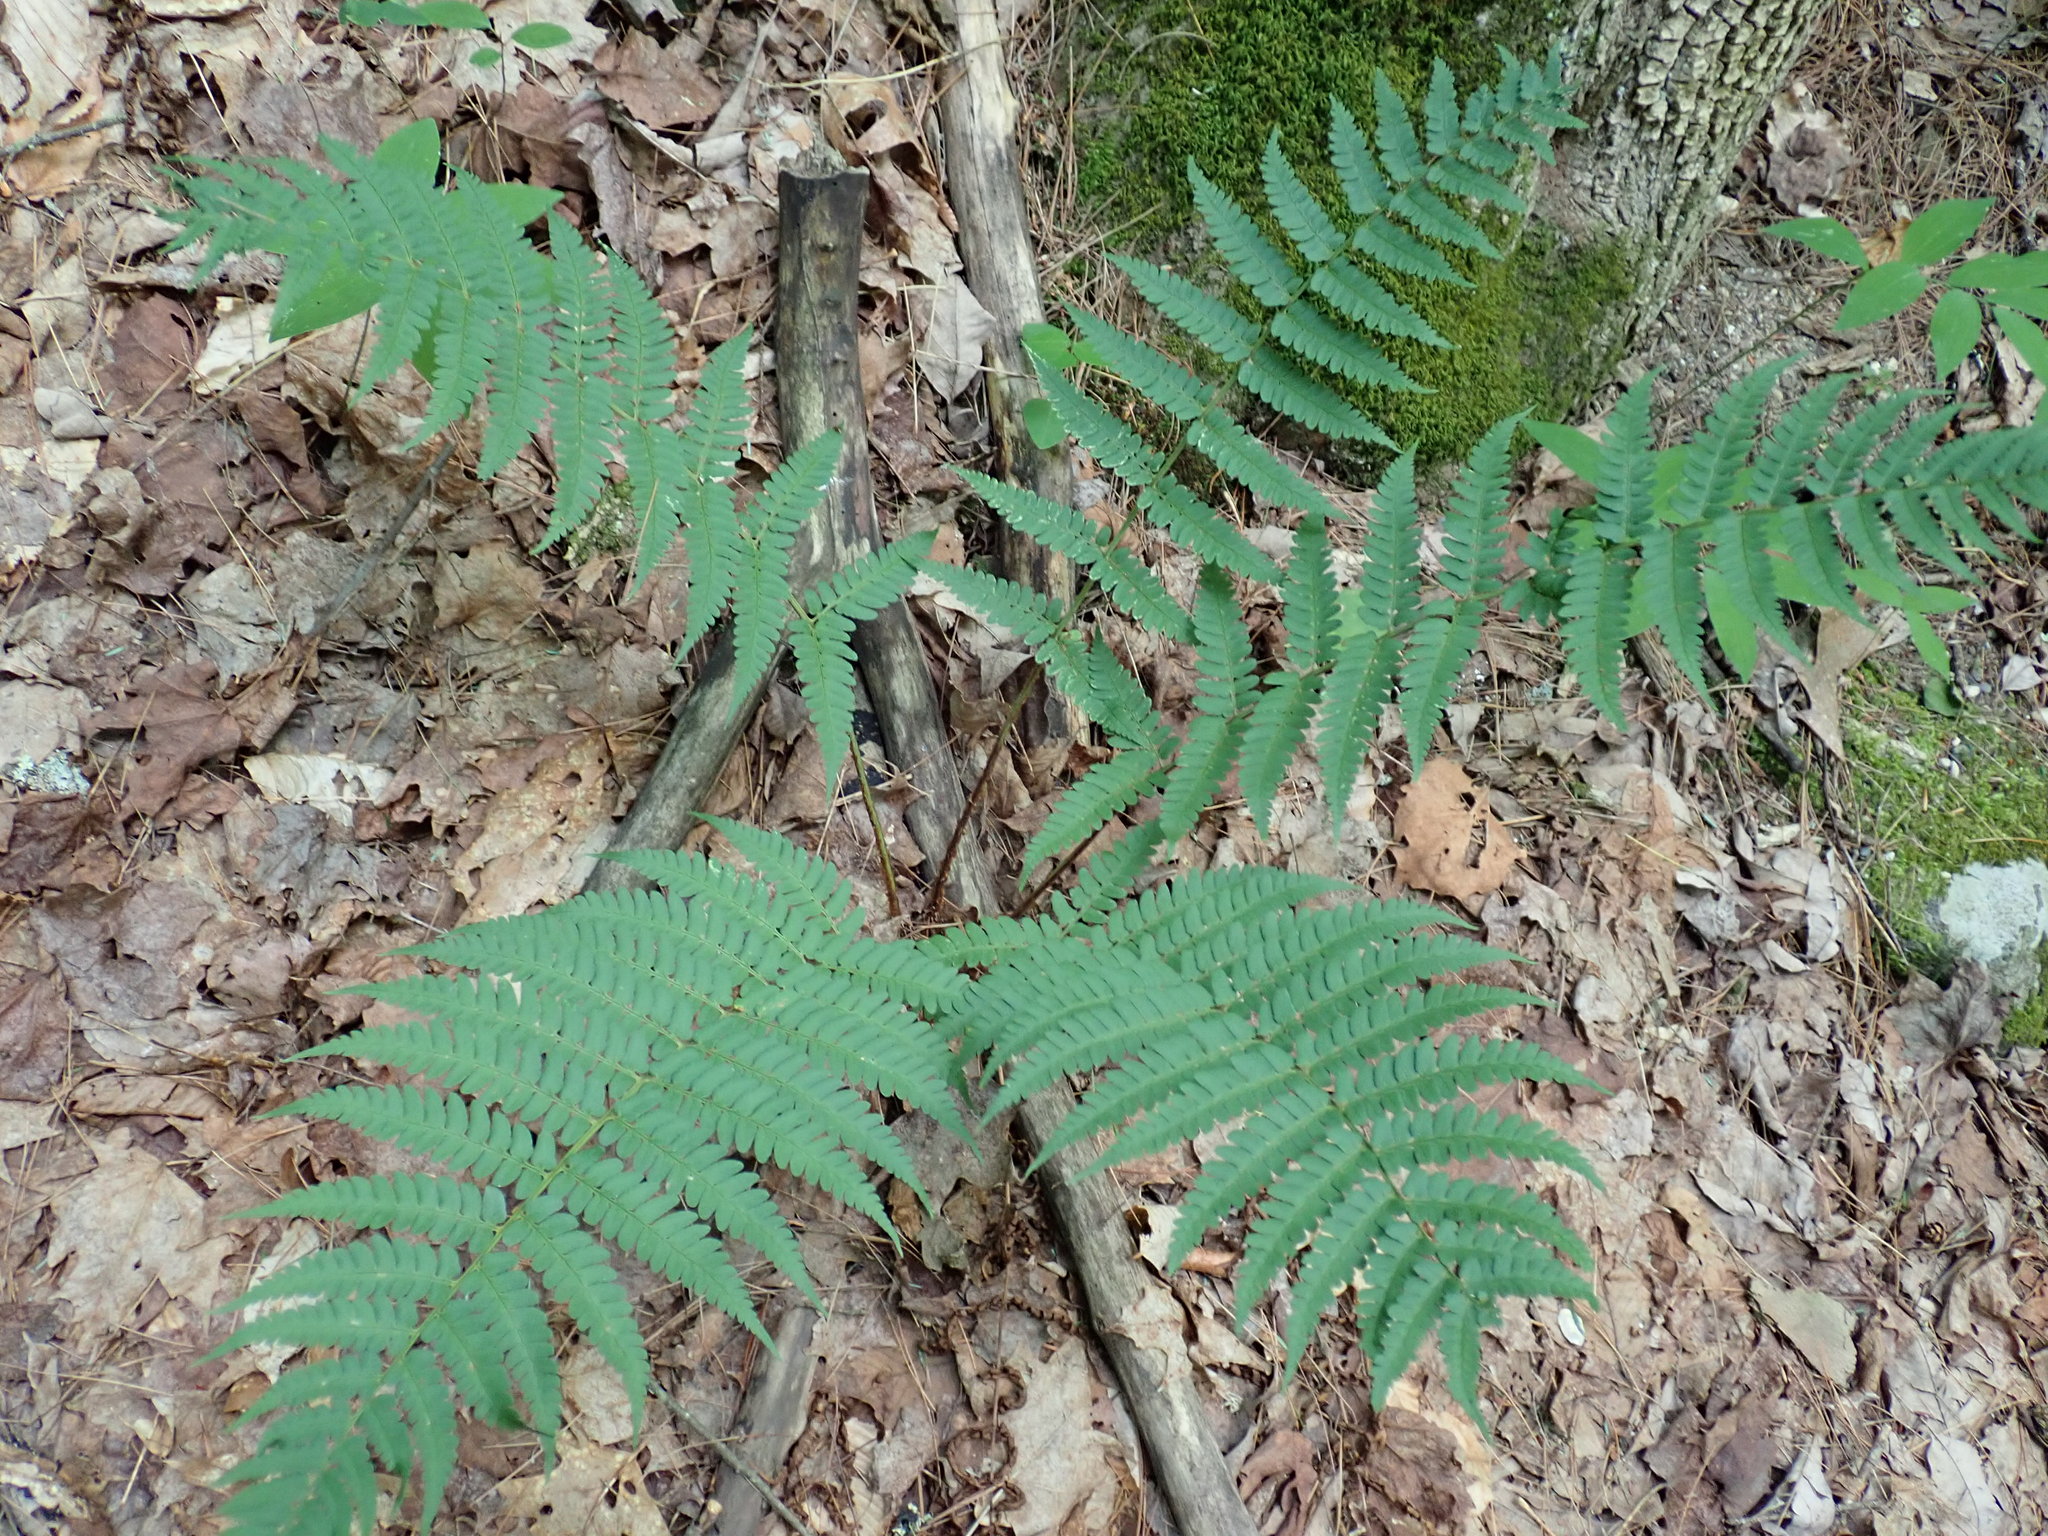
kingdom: Plantae
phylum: Tracheophyta
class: Polypodiopsida
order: Polypodiales
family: Dryopteridaceae
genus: Dryopteris
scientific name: Dryopteris marginalis
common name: Marginal wood fern
